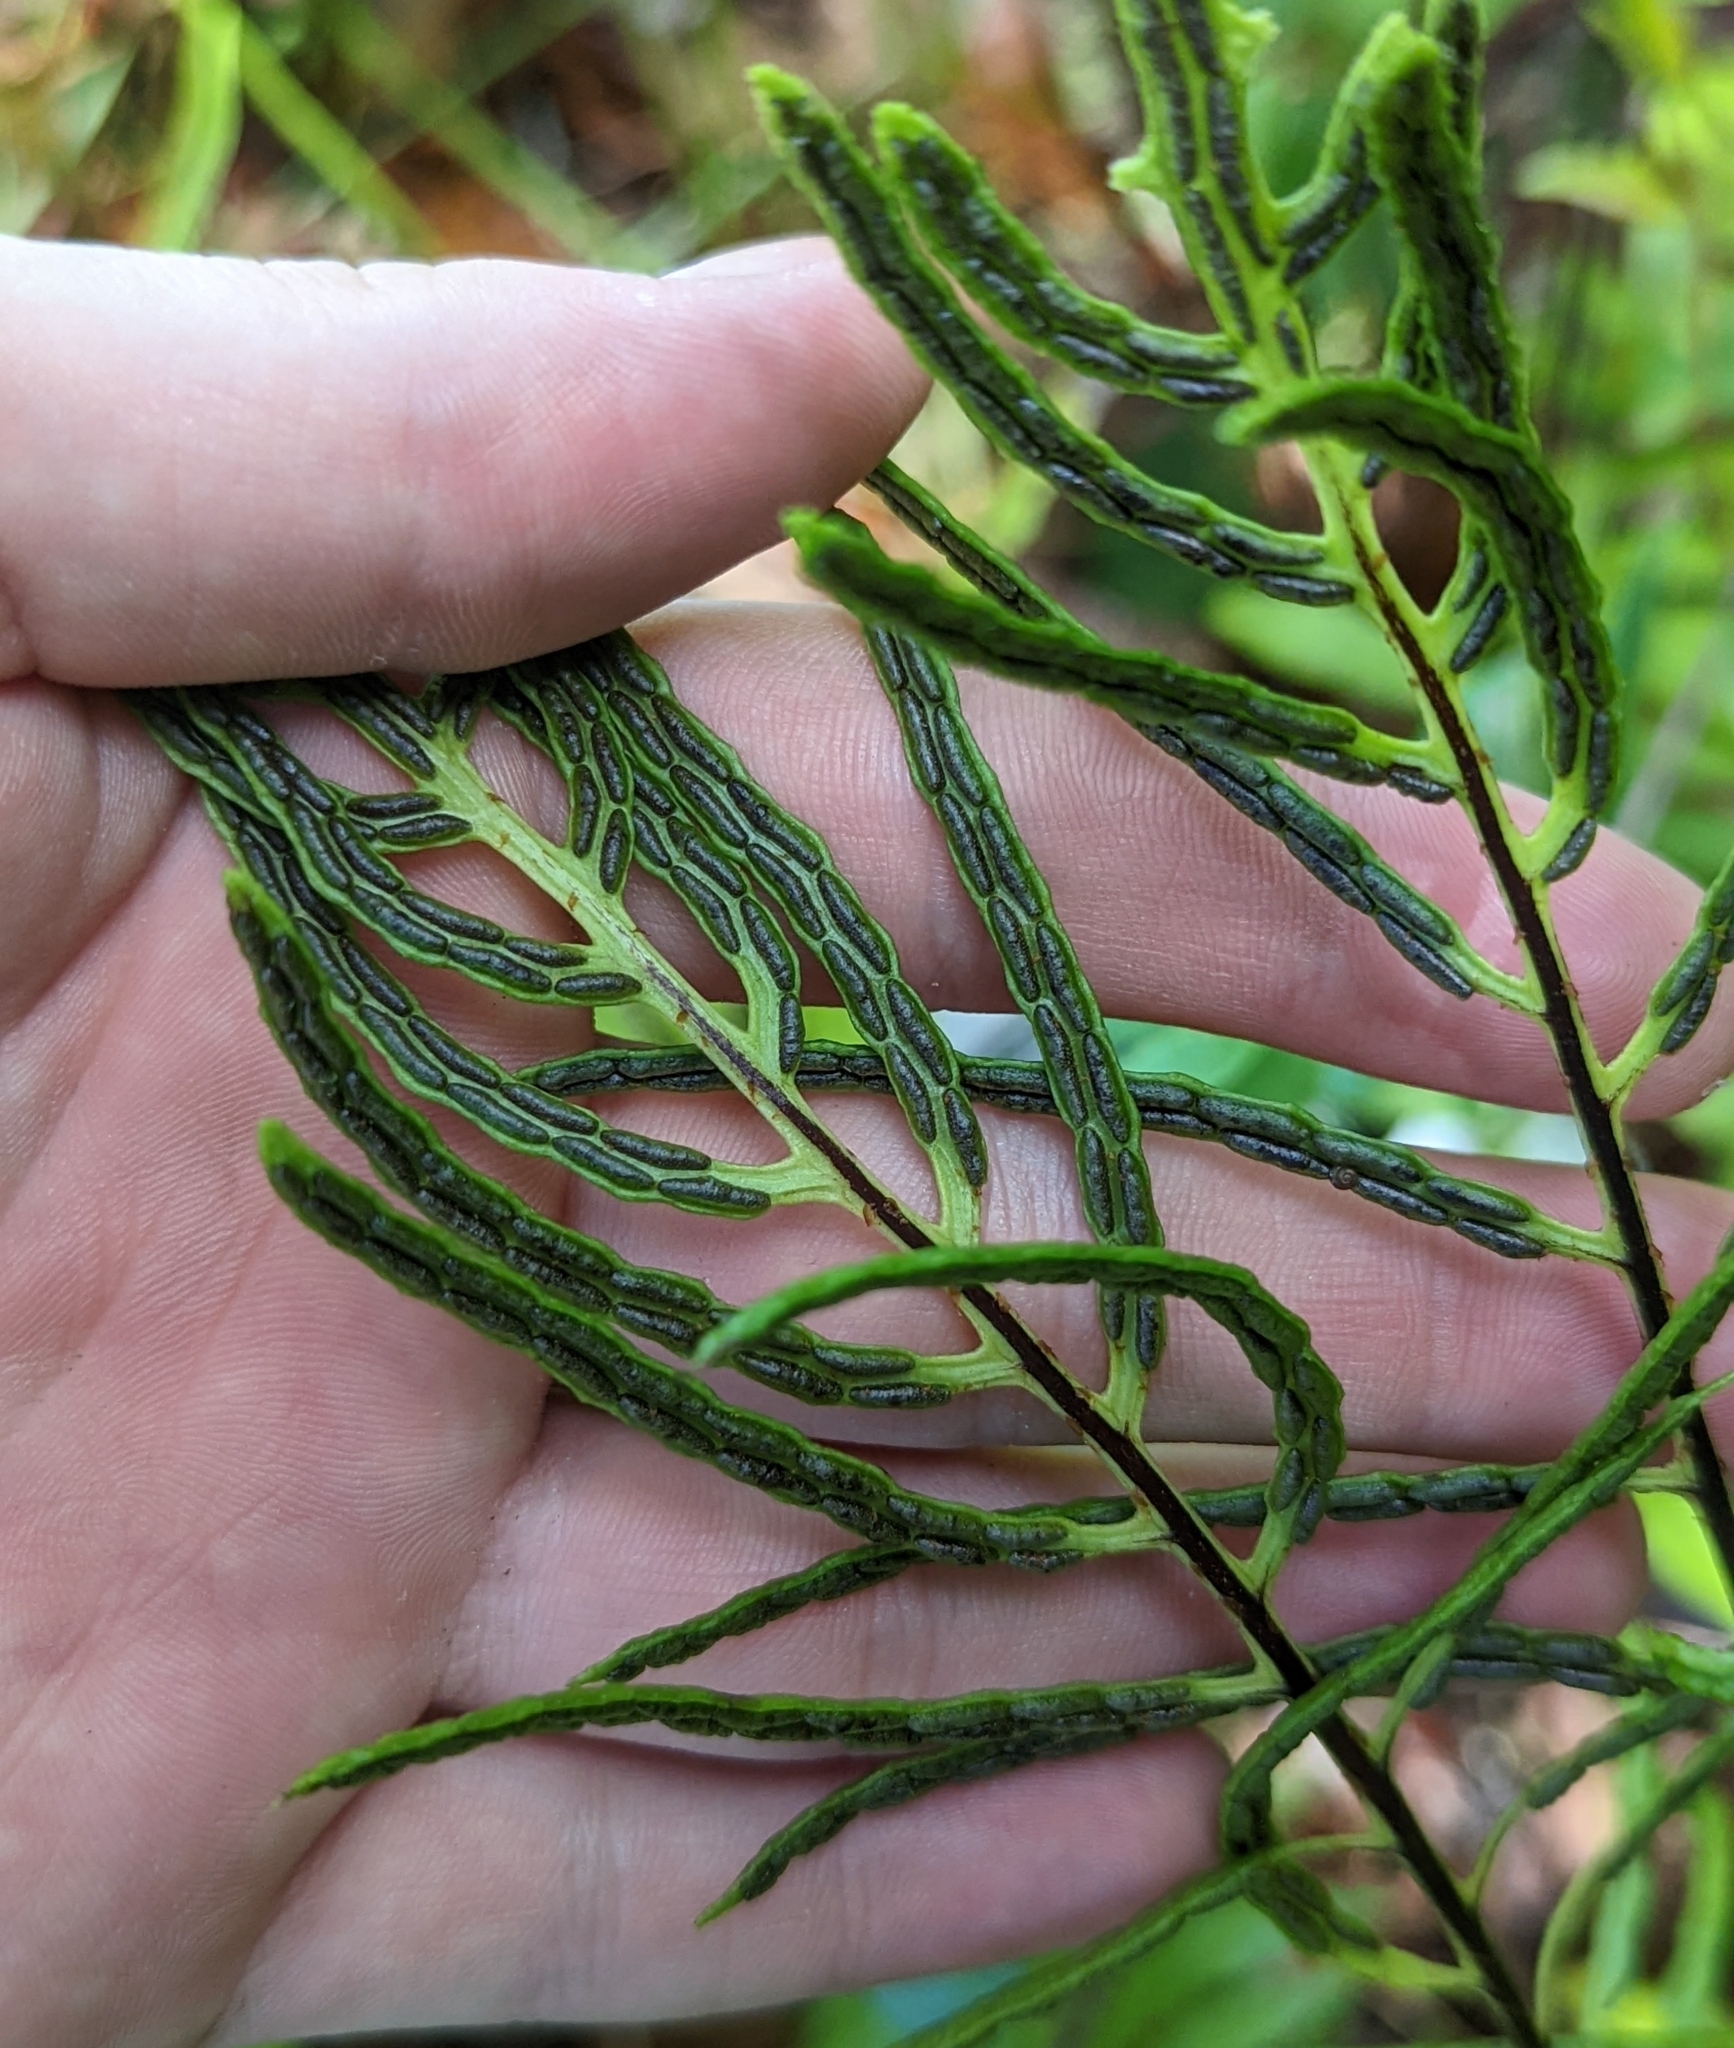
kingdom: Plantae
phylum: Tracheophyta
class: Polypodiopsida
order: Polypodiales
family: Blechnaceae
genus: Lorinseria
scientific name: Lorinseria areolata
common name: Dwarf chain fern
